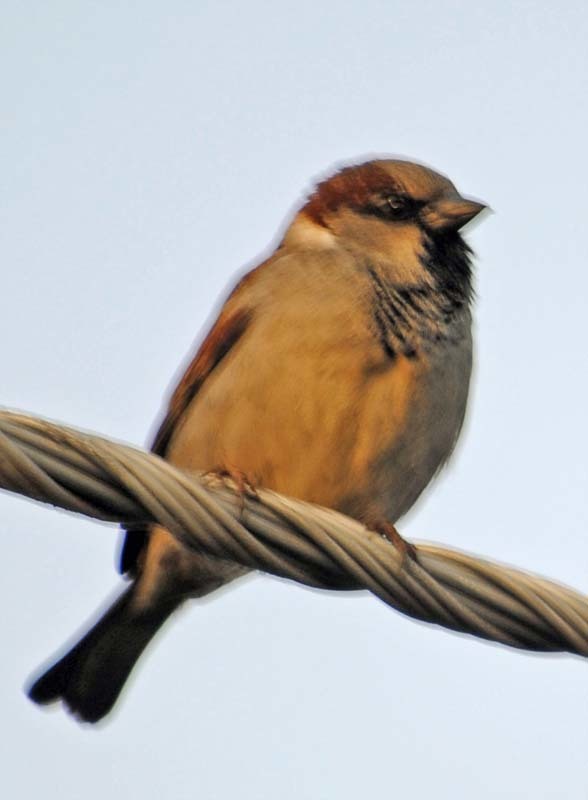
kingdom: Animalia
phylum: Chordata
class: Aves
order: Passeriformes
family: Passeridae
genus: Passer
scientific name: Passer domesticus
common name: House sparrow
